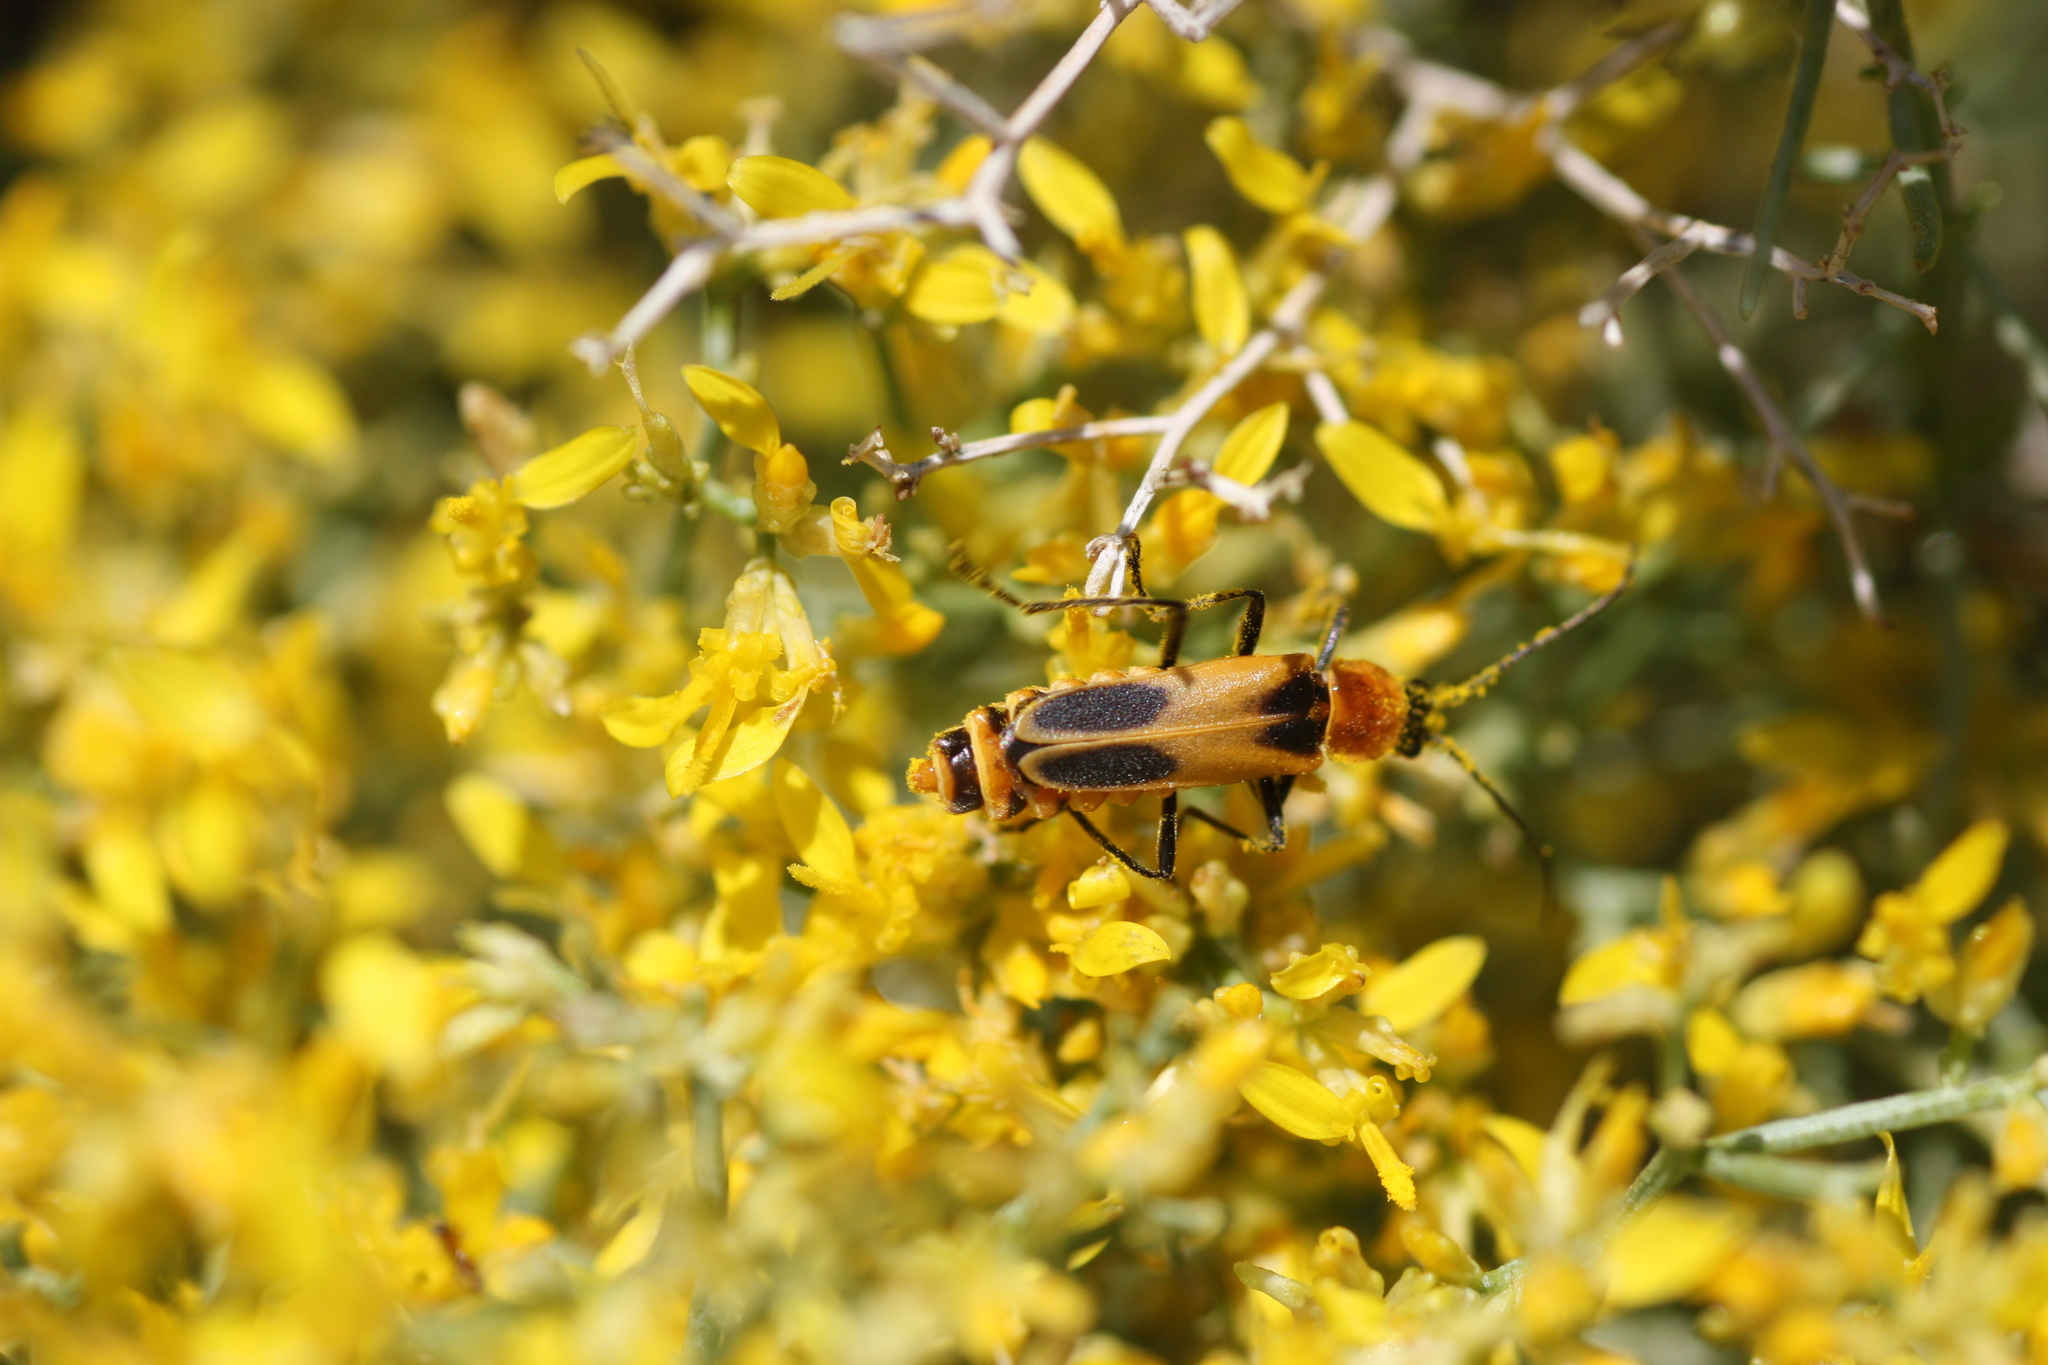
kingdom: Animalia
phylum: Arthropoda
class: Insecta
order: Coleoptera
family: Cantharidae
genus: Chauliognathus
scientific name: Chauliognathus omissus
